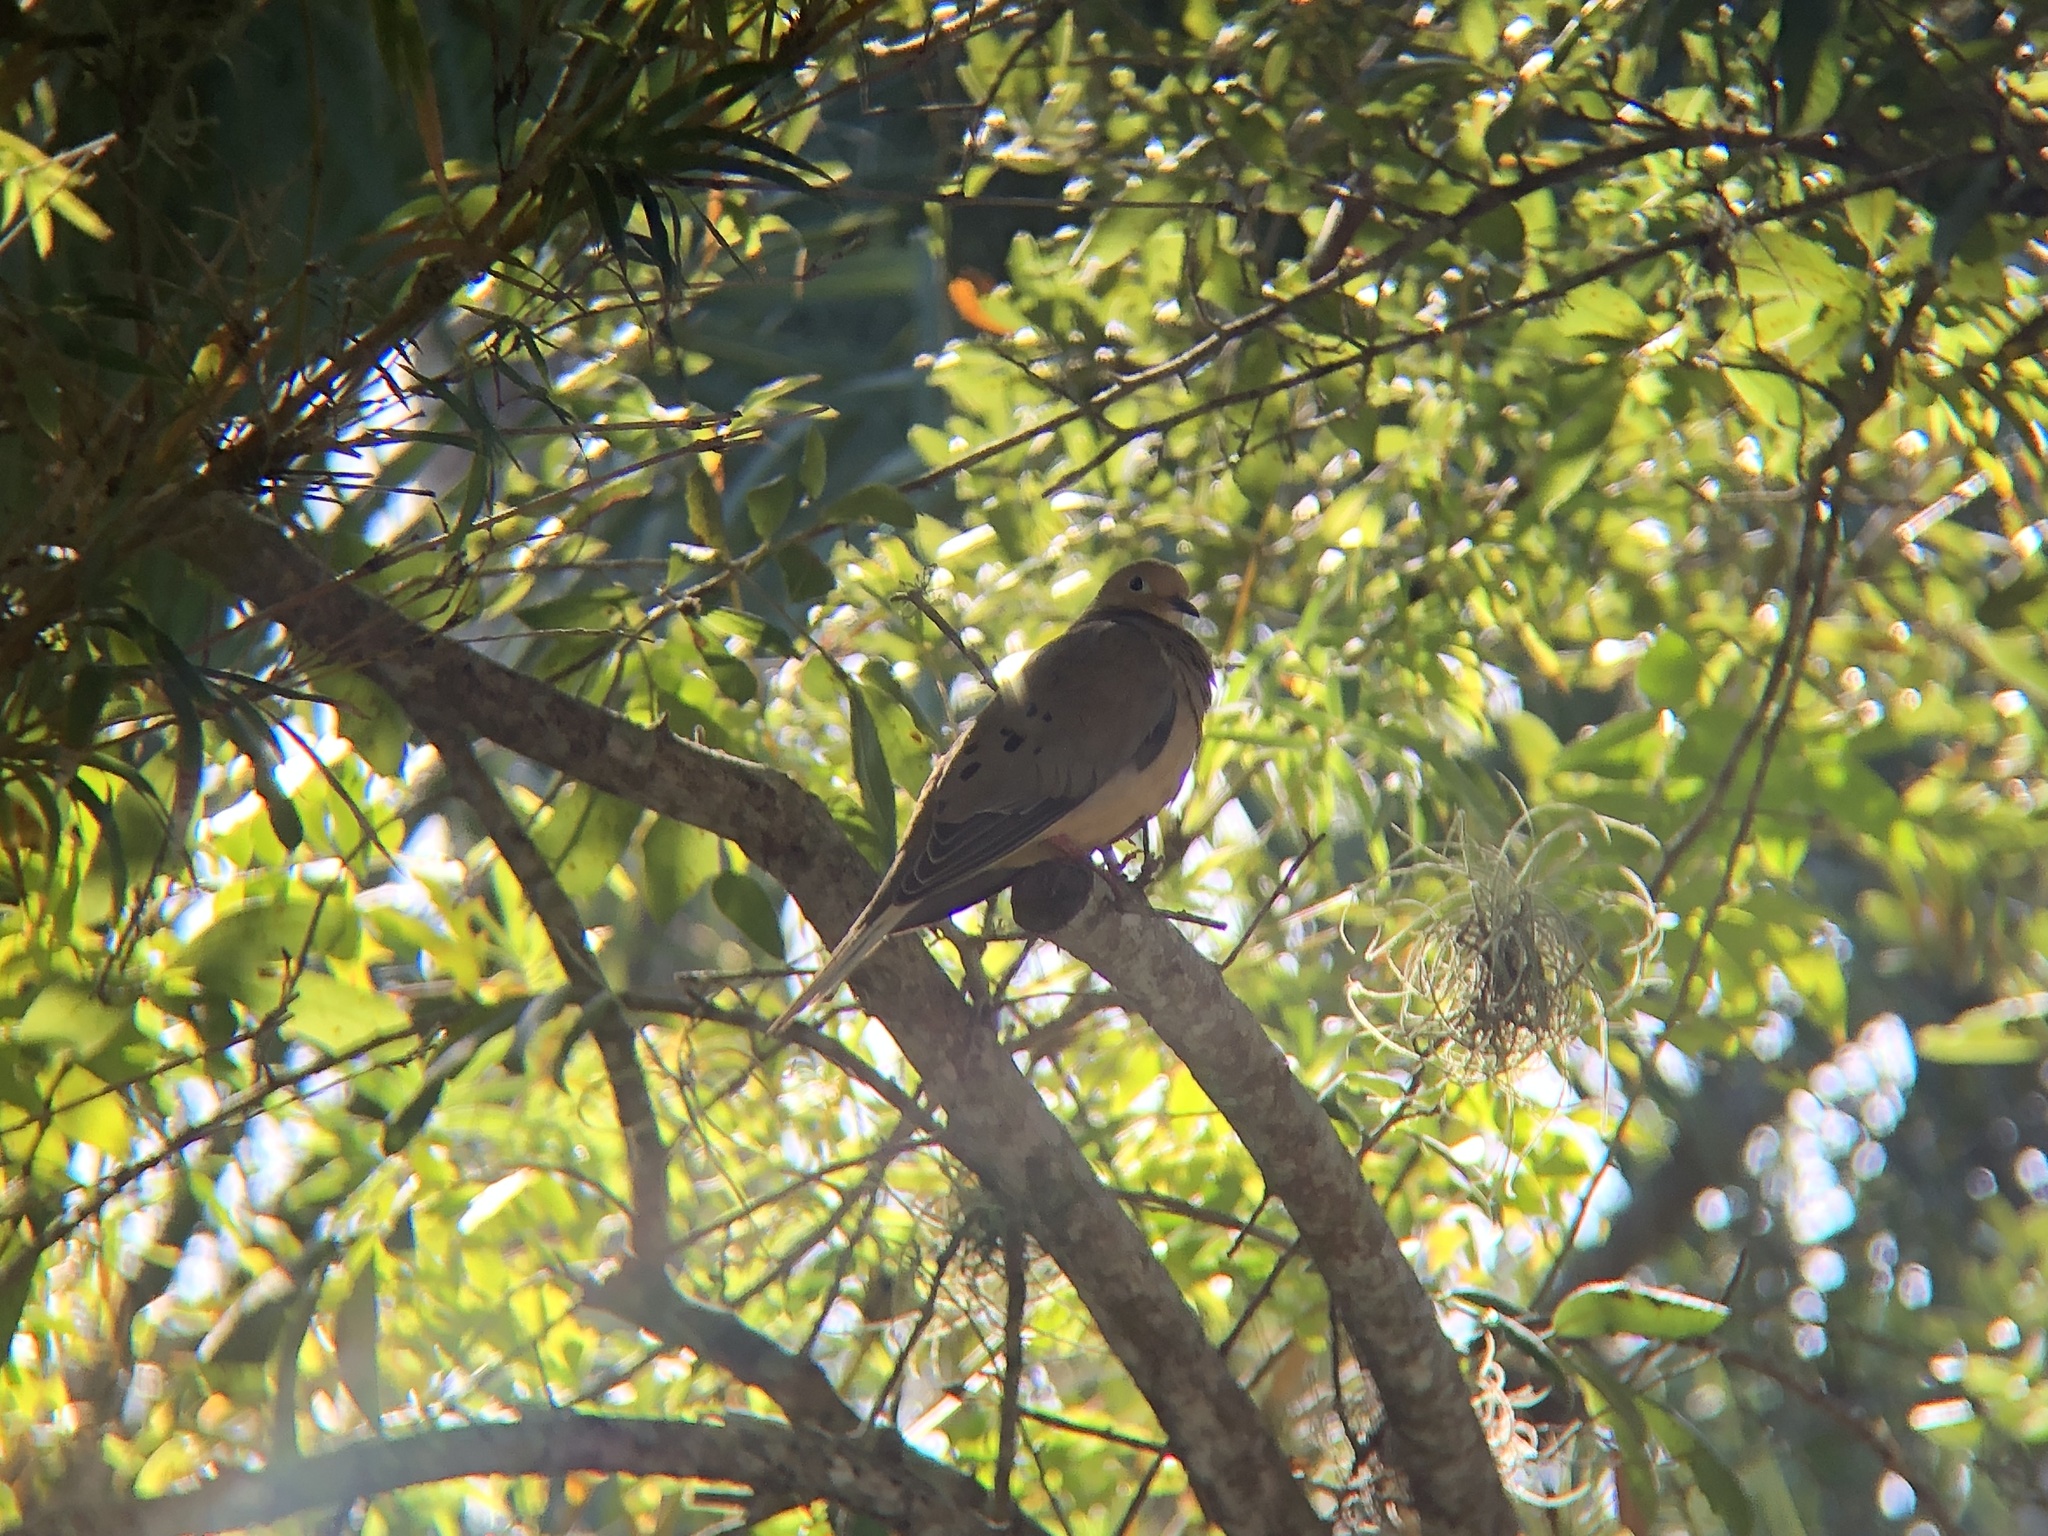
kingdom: Animalia
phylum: Chordata
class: Aves
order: Columbiformes
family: Columbidae
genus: Zenaida
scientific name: Zenaida macroura
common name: Mourning dove
